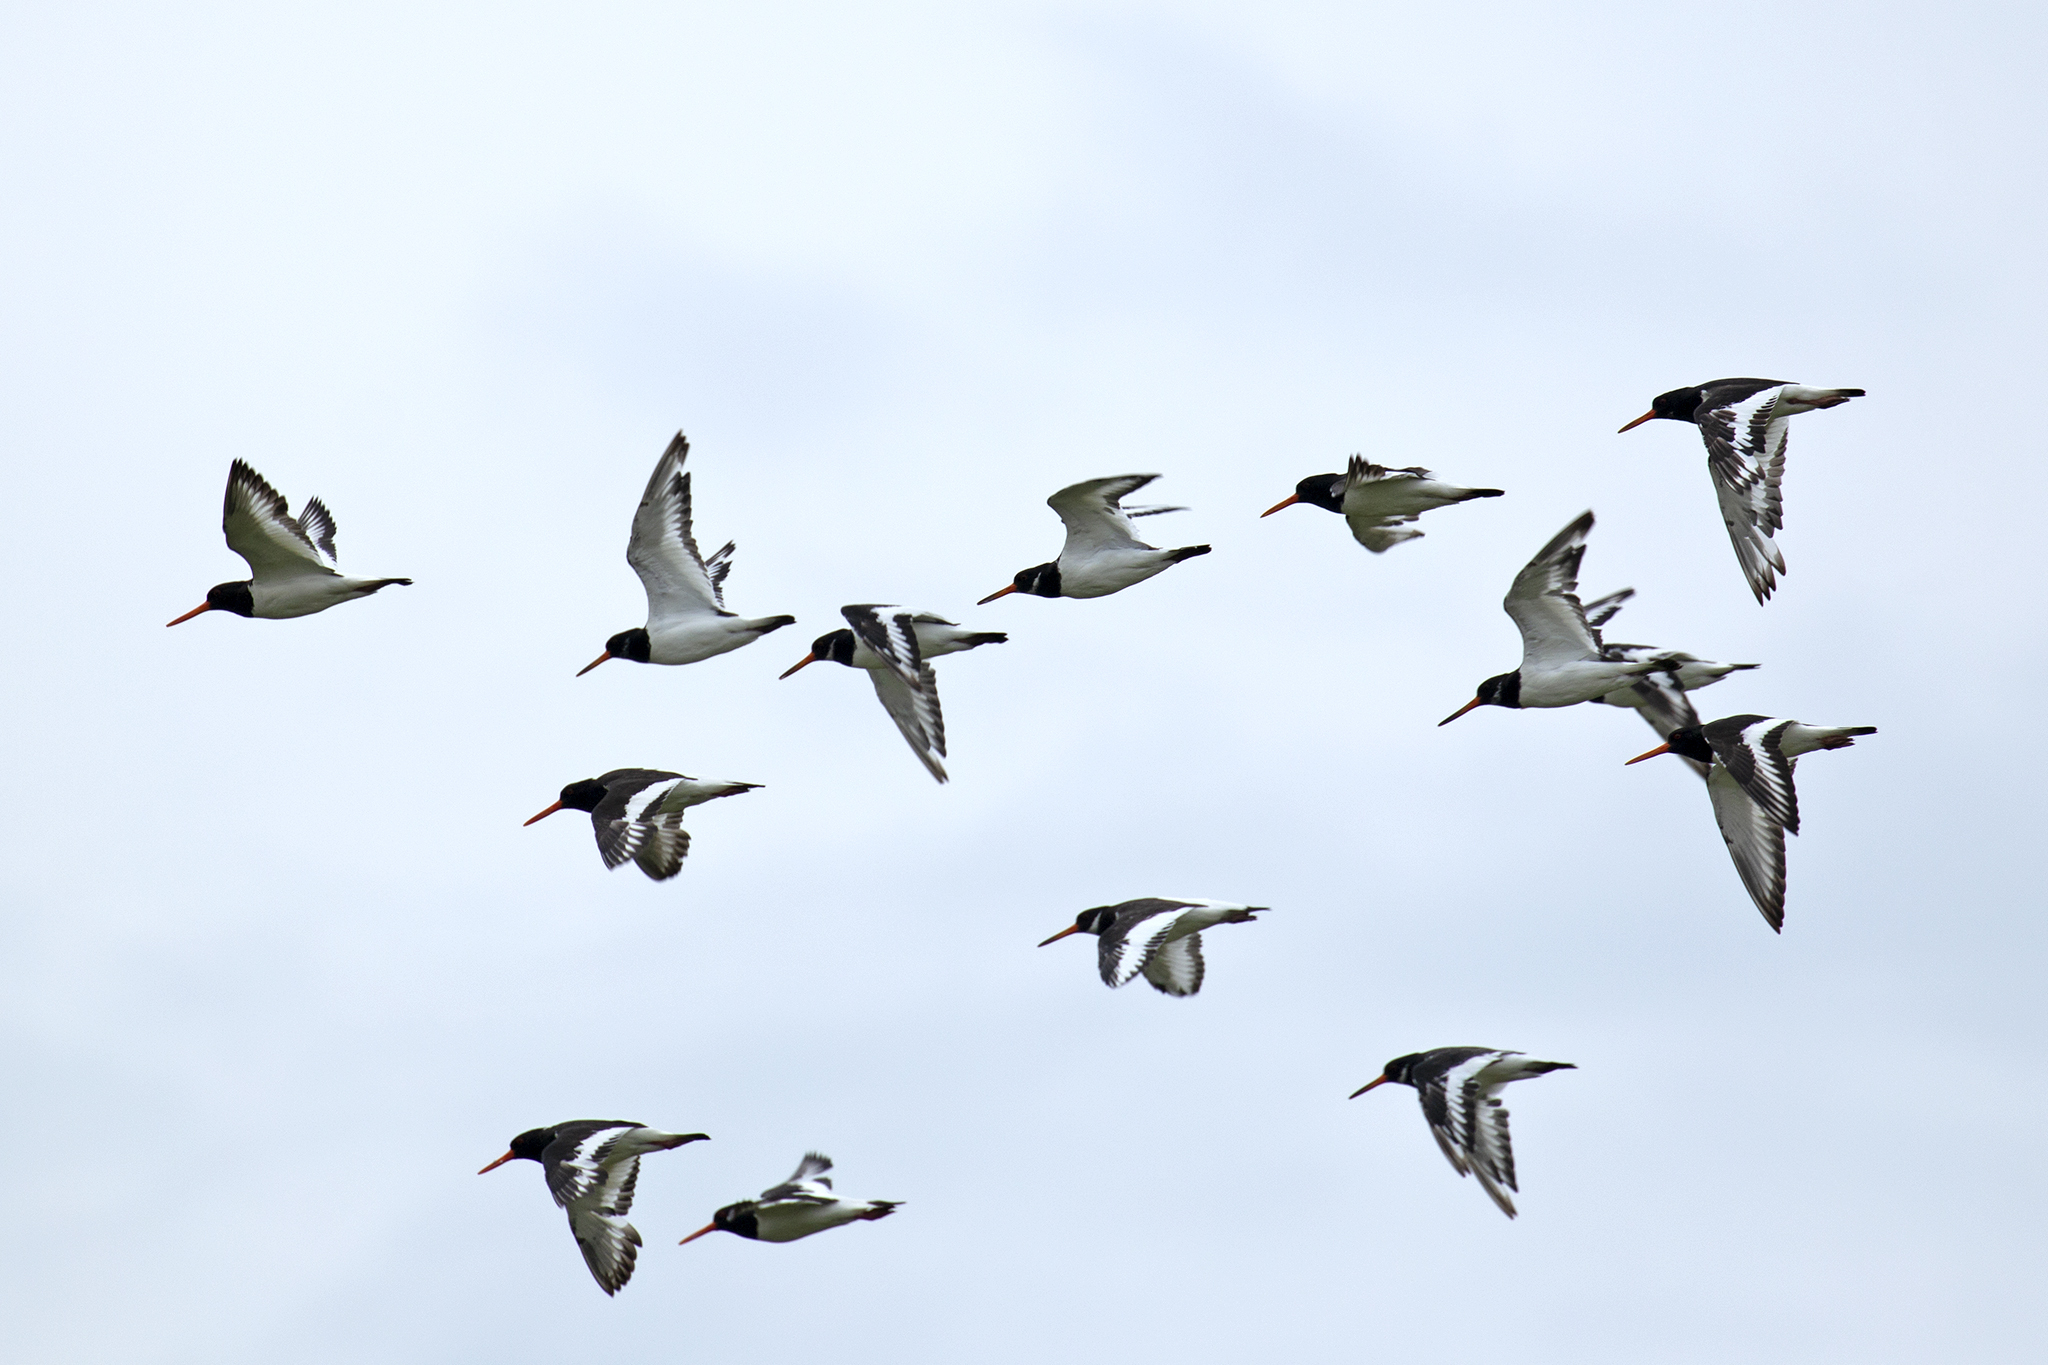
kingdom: Animalia
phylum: Chordata
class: Aves
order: Charadriiformes
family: Haematopodidae
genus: Haematopus
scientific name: Haematopus ostralegus
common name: Eurasian oystercatcher
